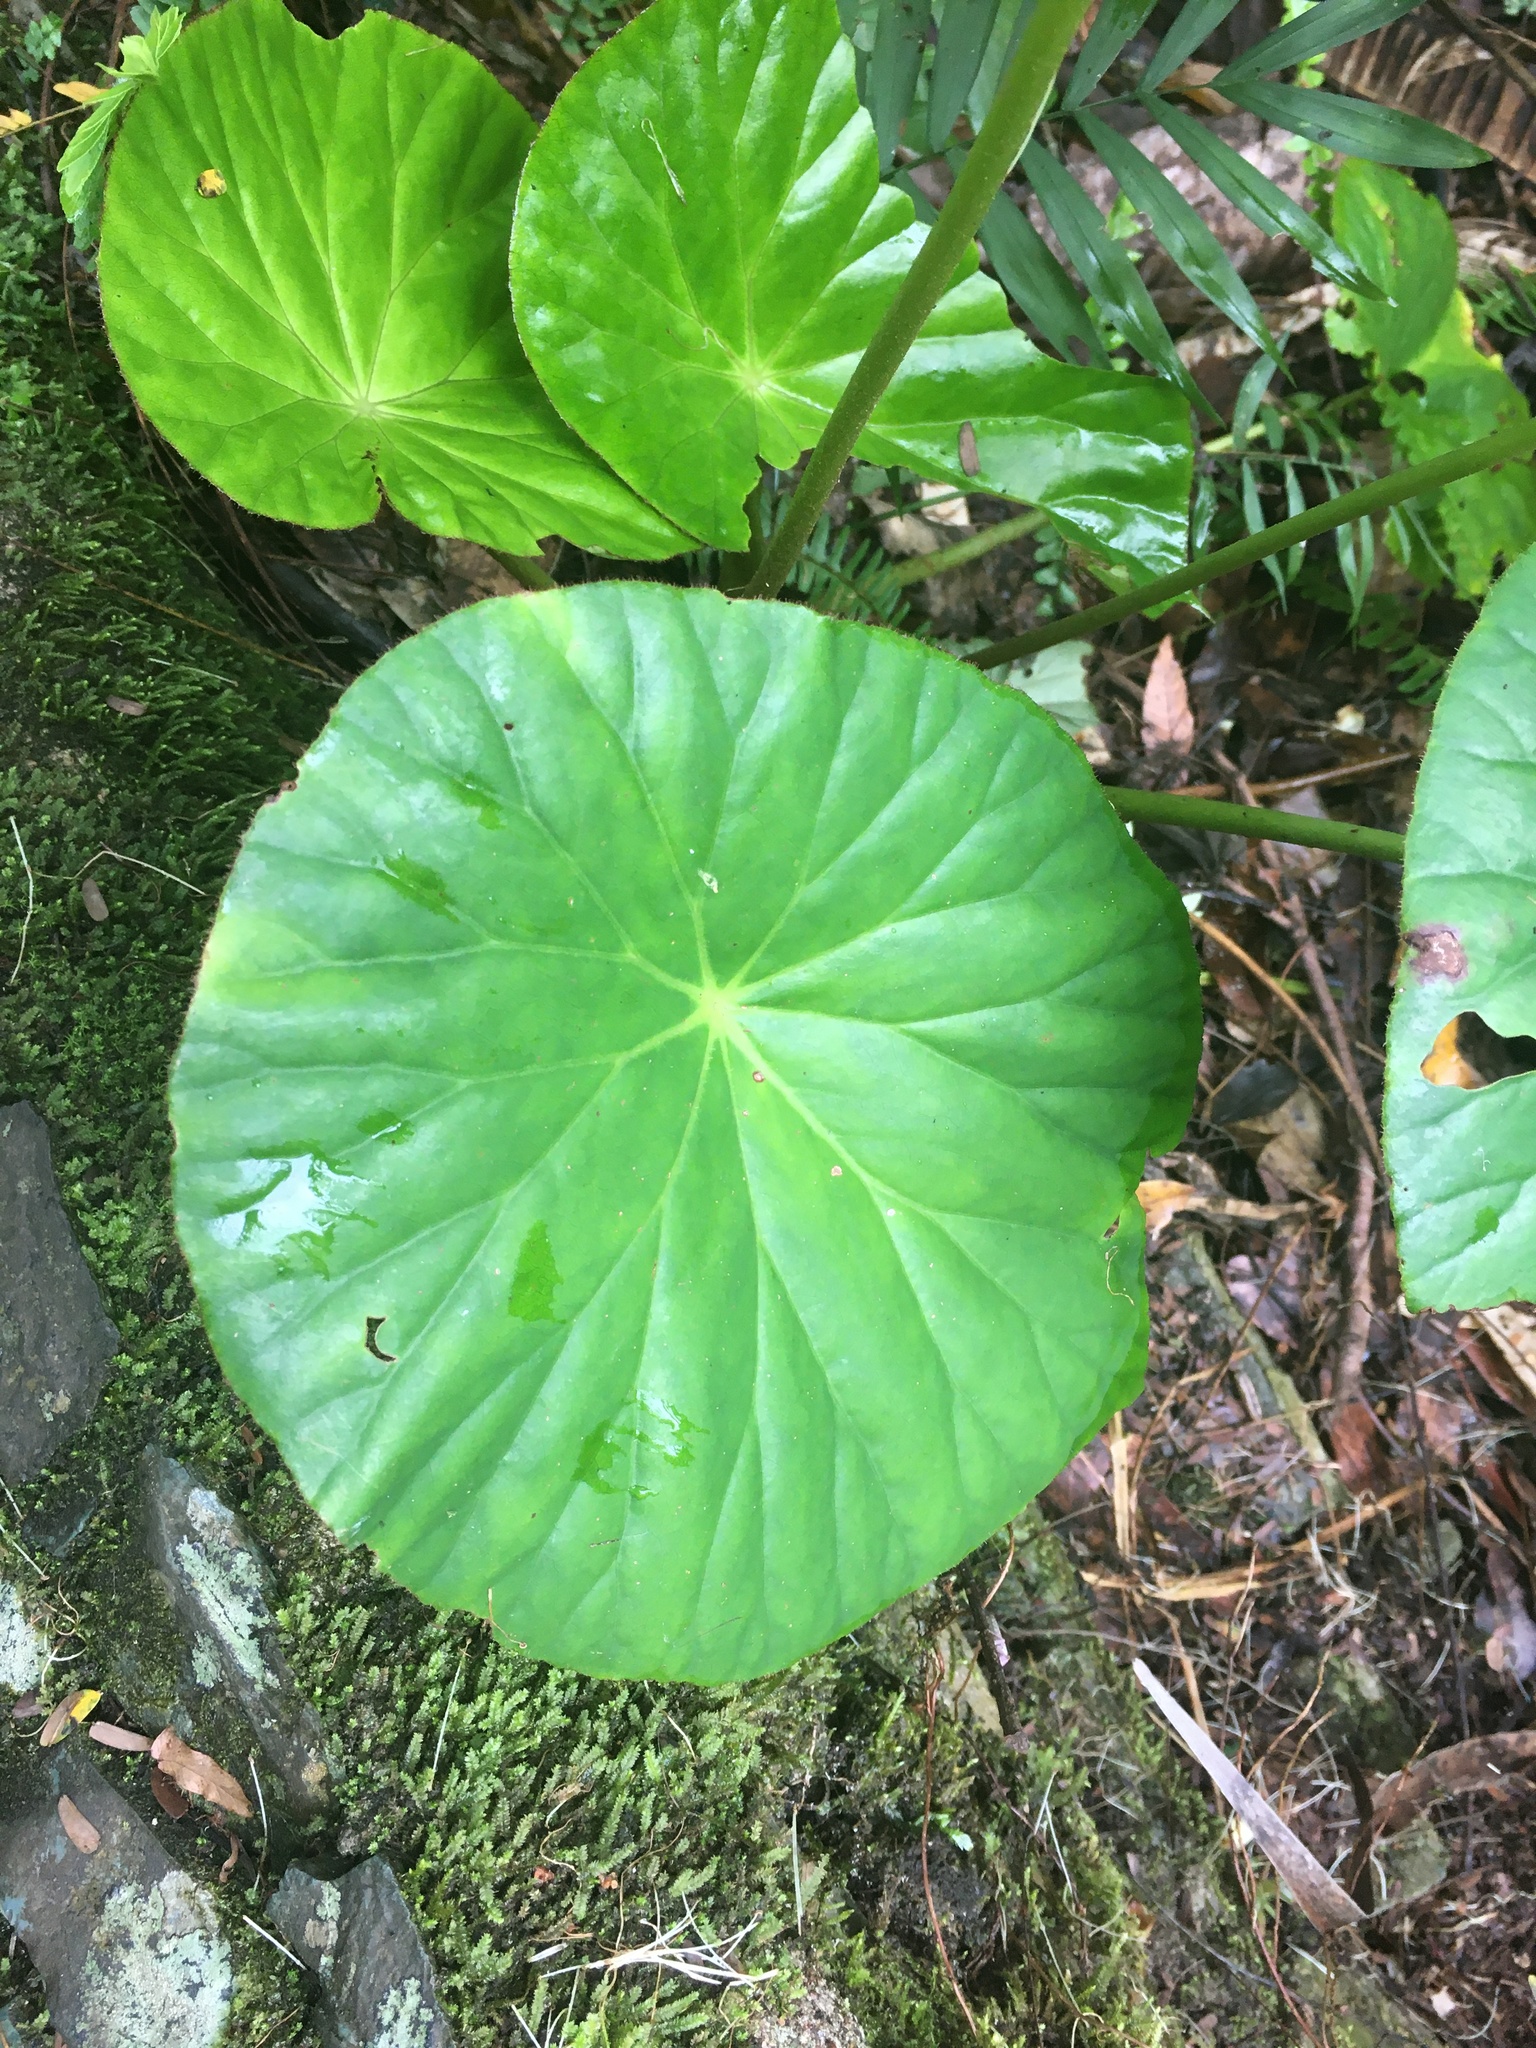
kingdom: Plantae
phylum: Tracheophyta
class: Magnoliopsida
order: Cucurbitales
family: Begoniaceae
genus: Begonia
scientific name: Begonia nelumbiifolia
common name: Lilypad begonia
